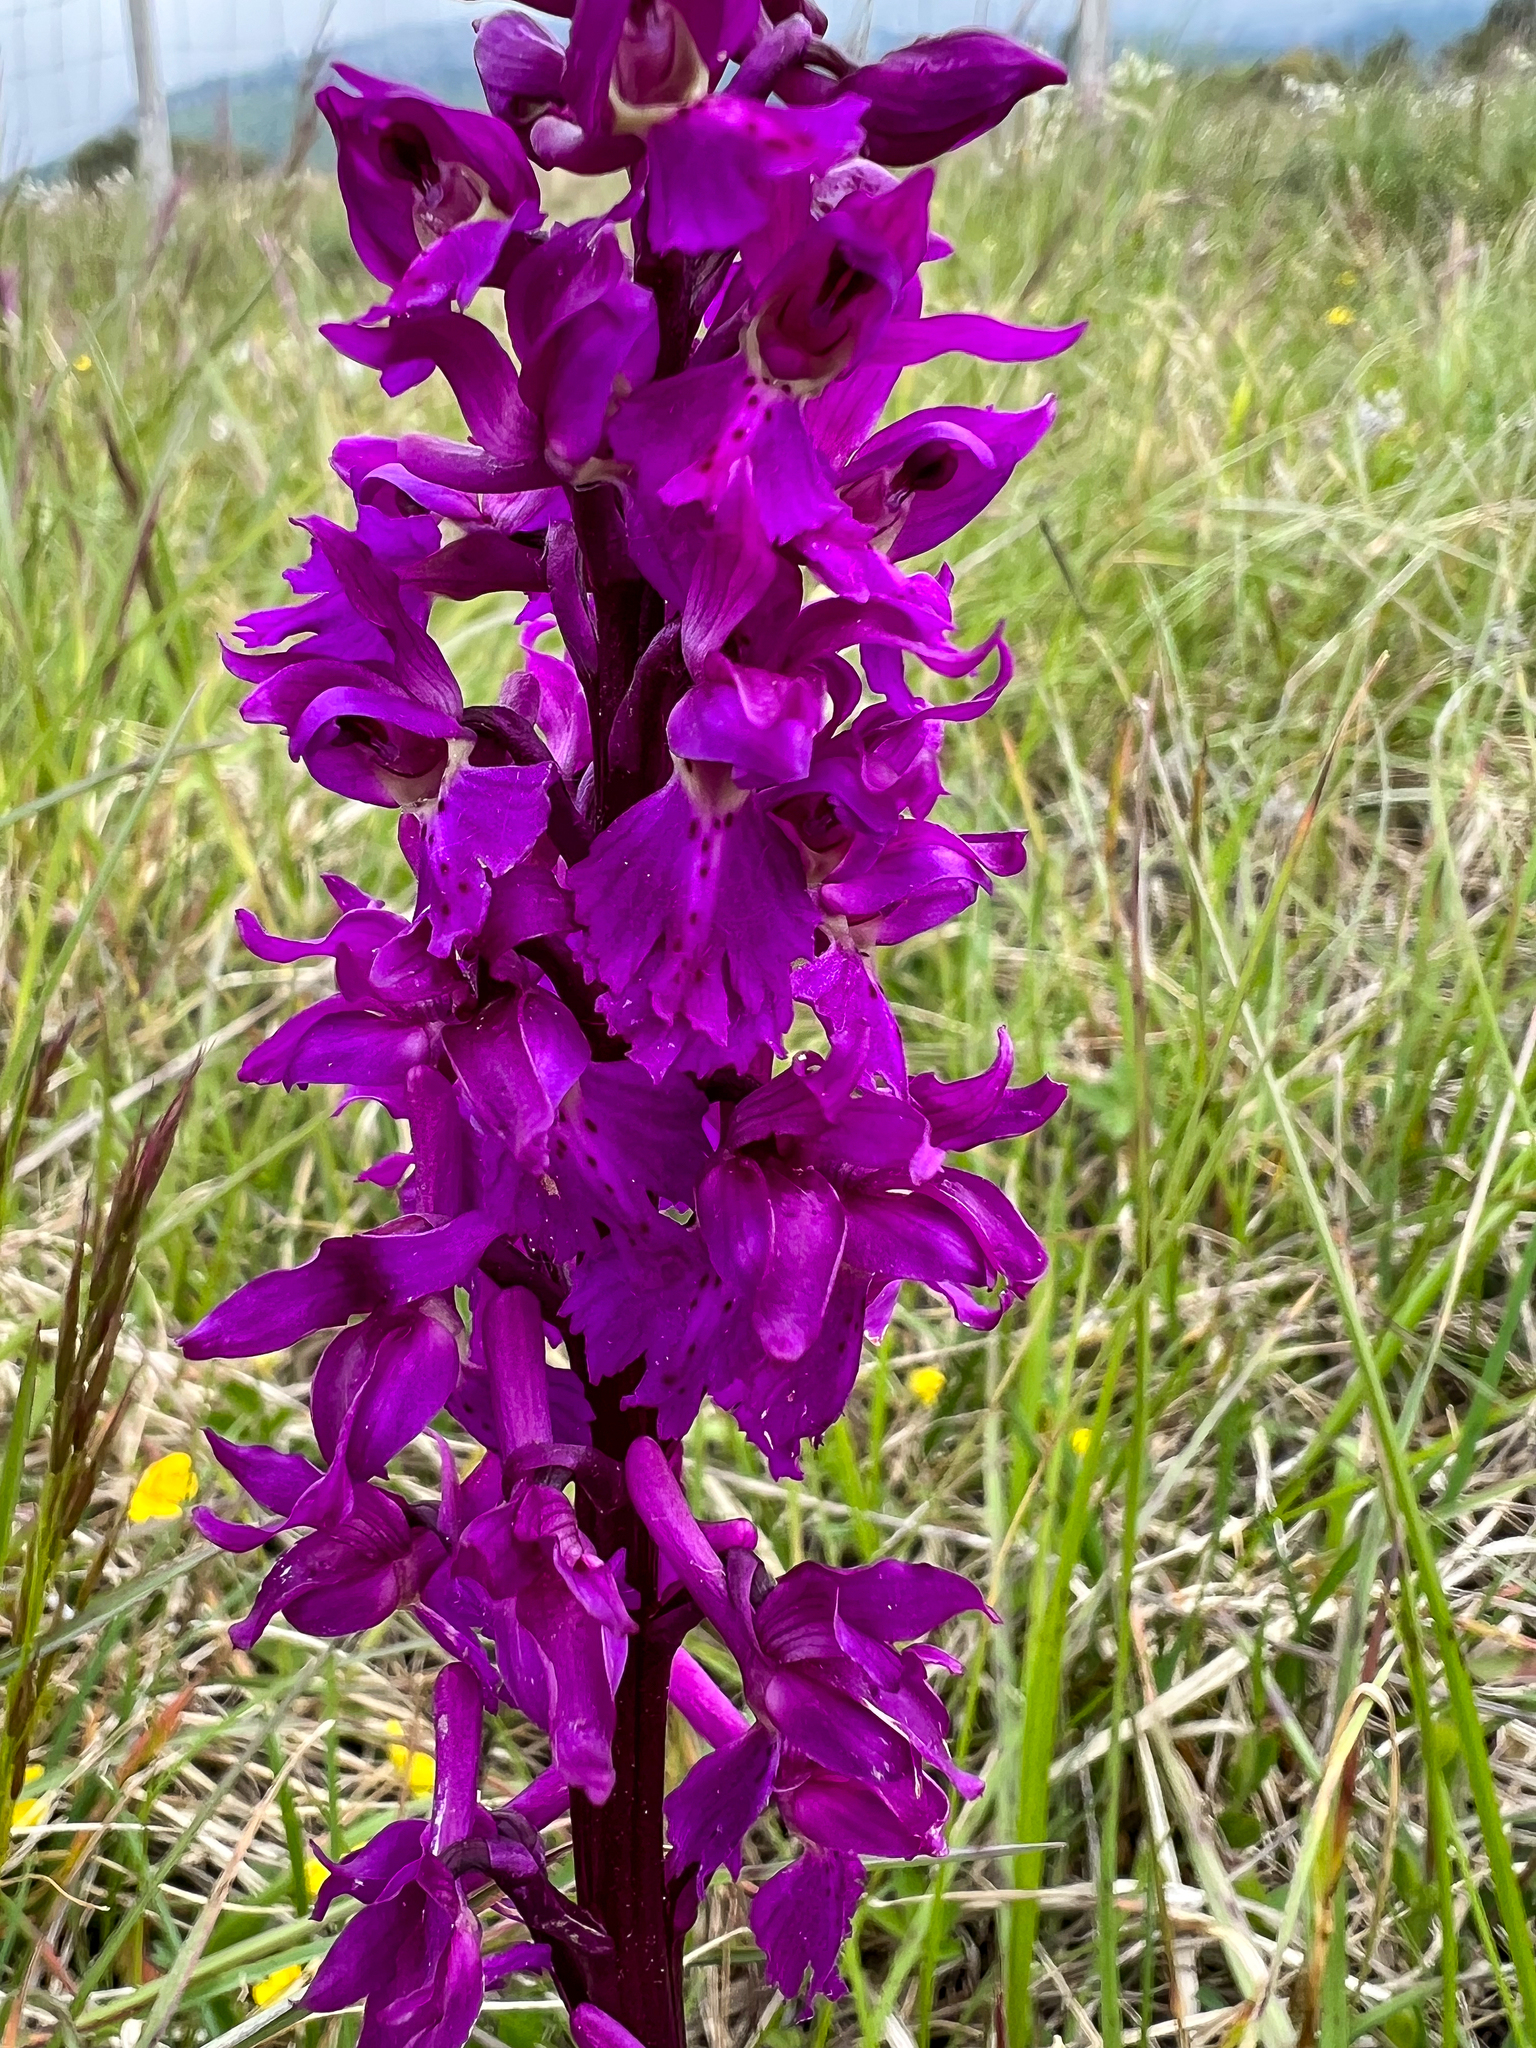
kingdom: Plantae
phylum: Tracheophyta
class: Liliopsida
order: Asparagales
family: Orchidaceae
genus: Orchis
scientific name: Orchis mascula
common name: Early-purple orchid
